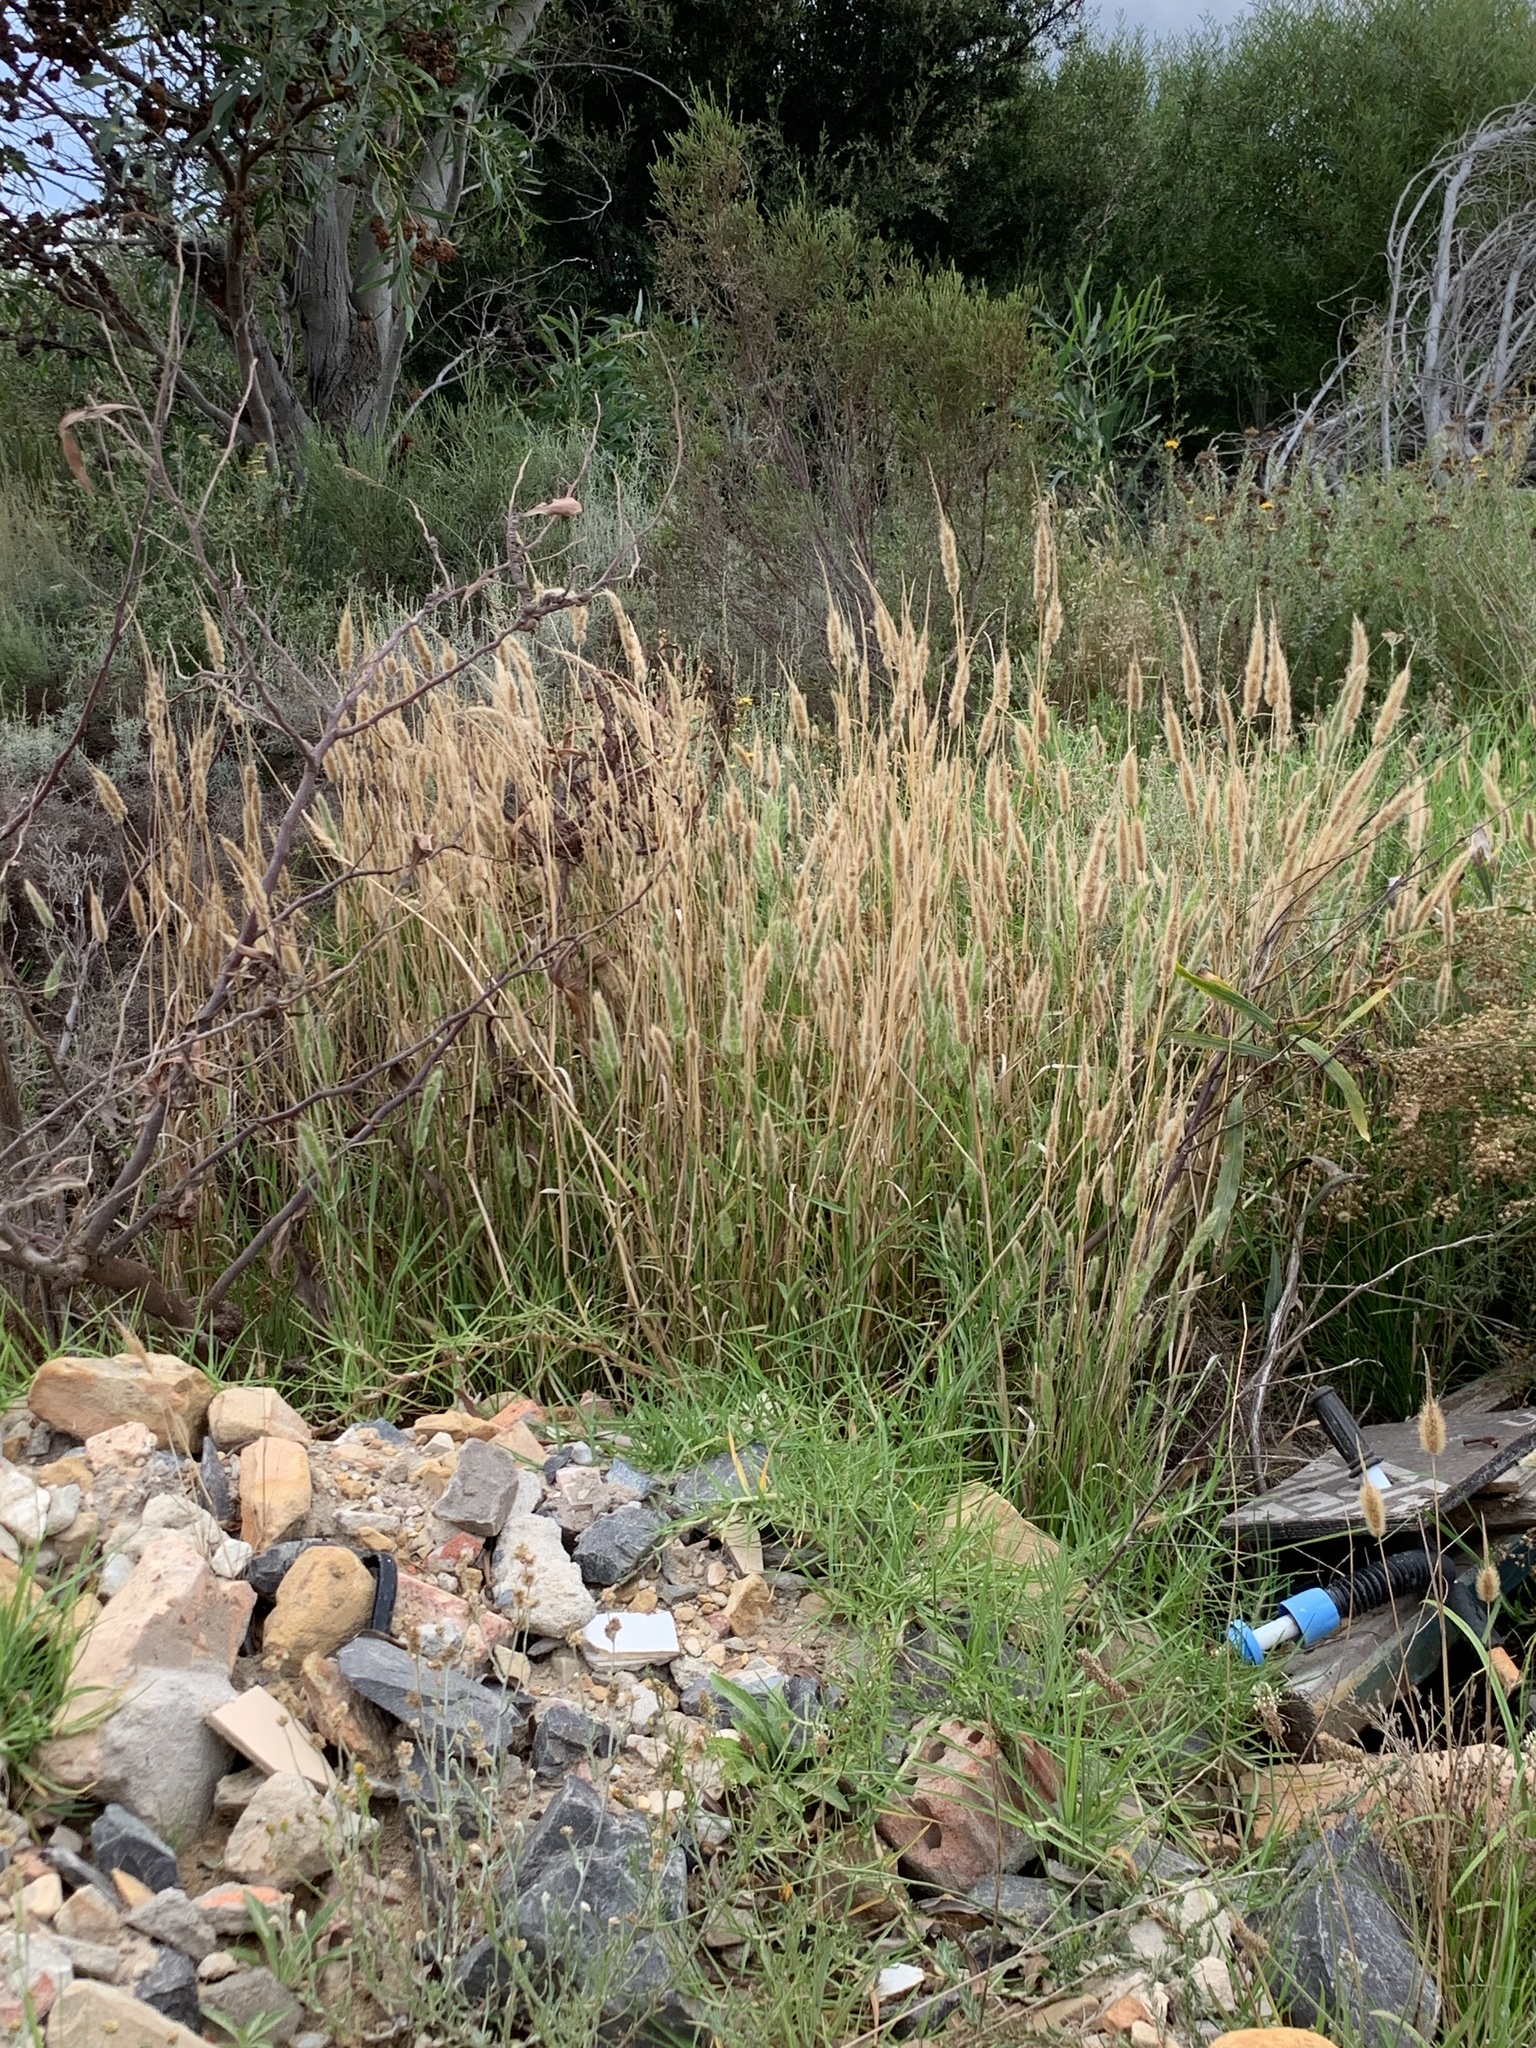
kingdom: Plantae
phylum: Tracheophyta
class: Liliopsida
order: Poales
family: Poaceae
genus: Polypogon
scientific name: Polypogon monspeliensis
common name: Annual rabbitsfoot grass
